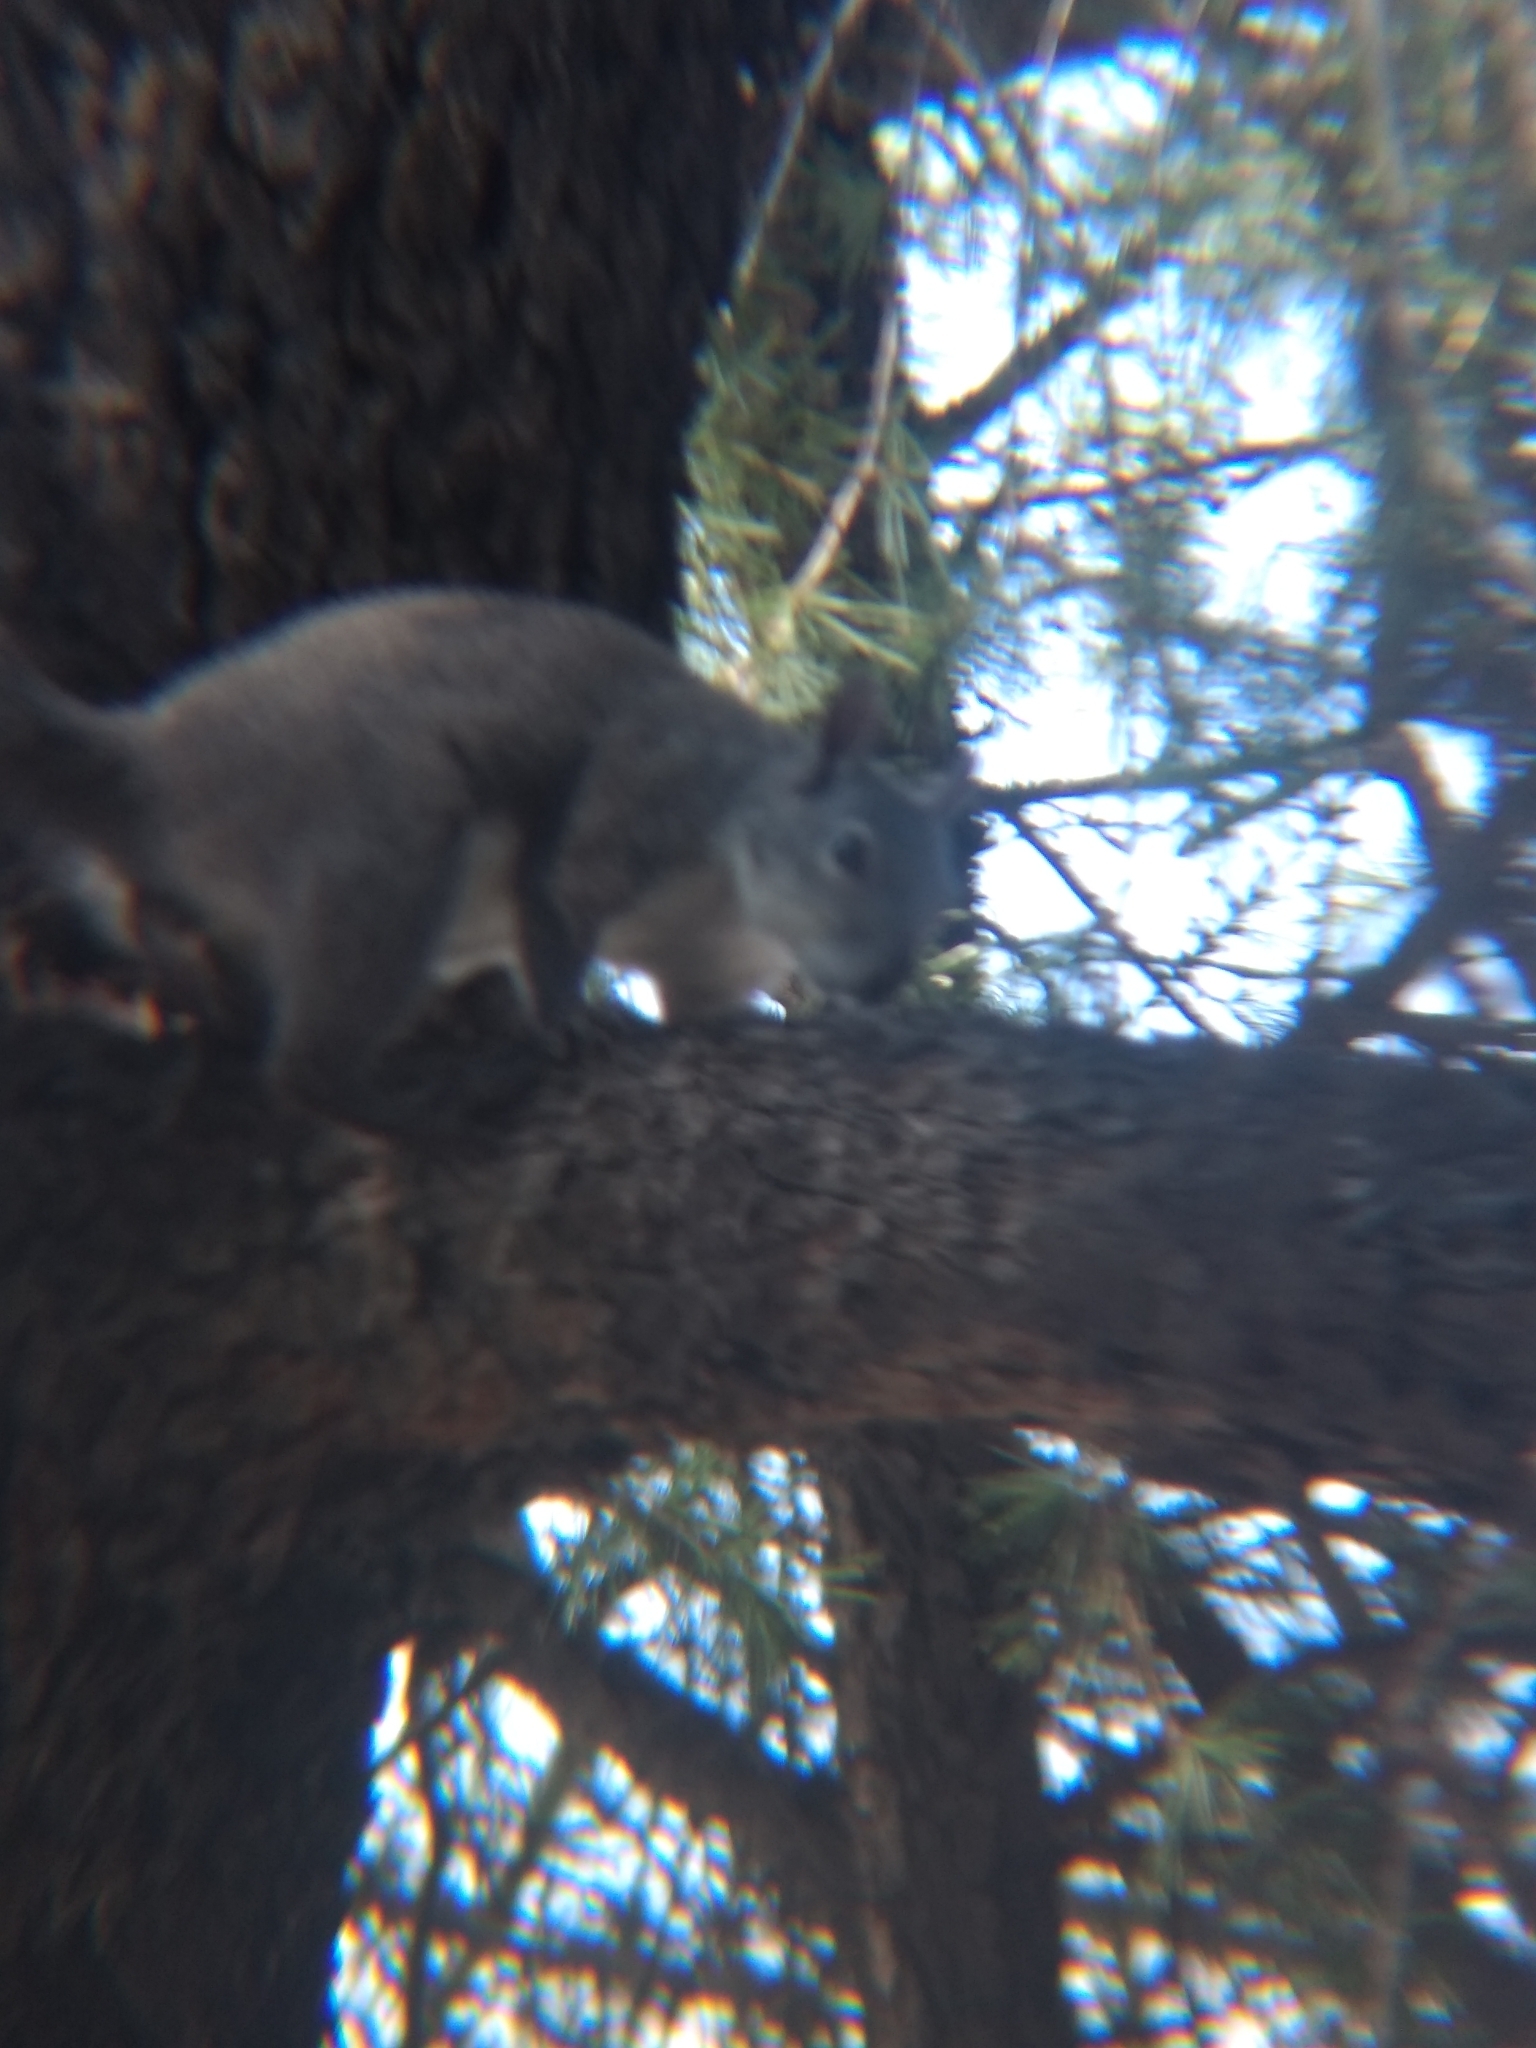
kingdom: Animalia
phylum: Chordata
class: Mammalia
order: Rodentia
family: Sciuridae
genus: Sciurus
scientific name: Sciurus griseus
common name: Western gray squirrel
